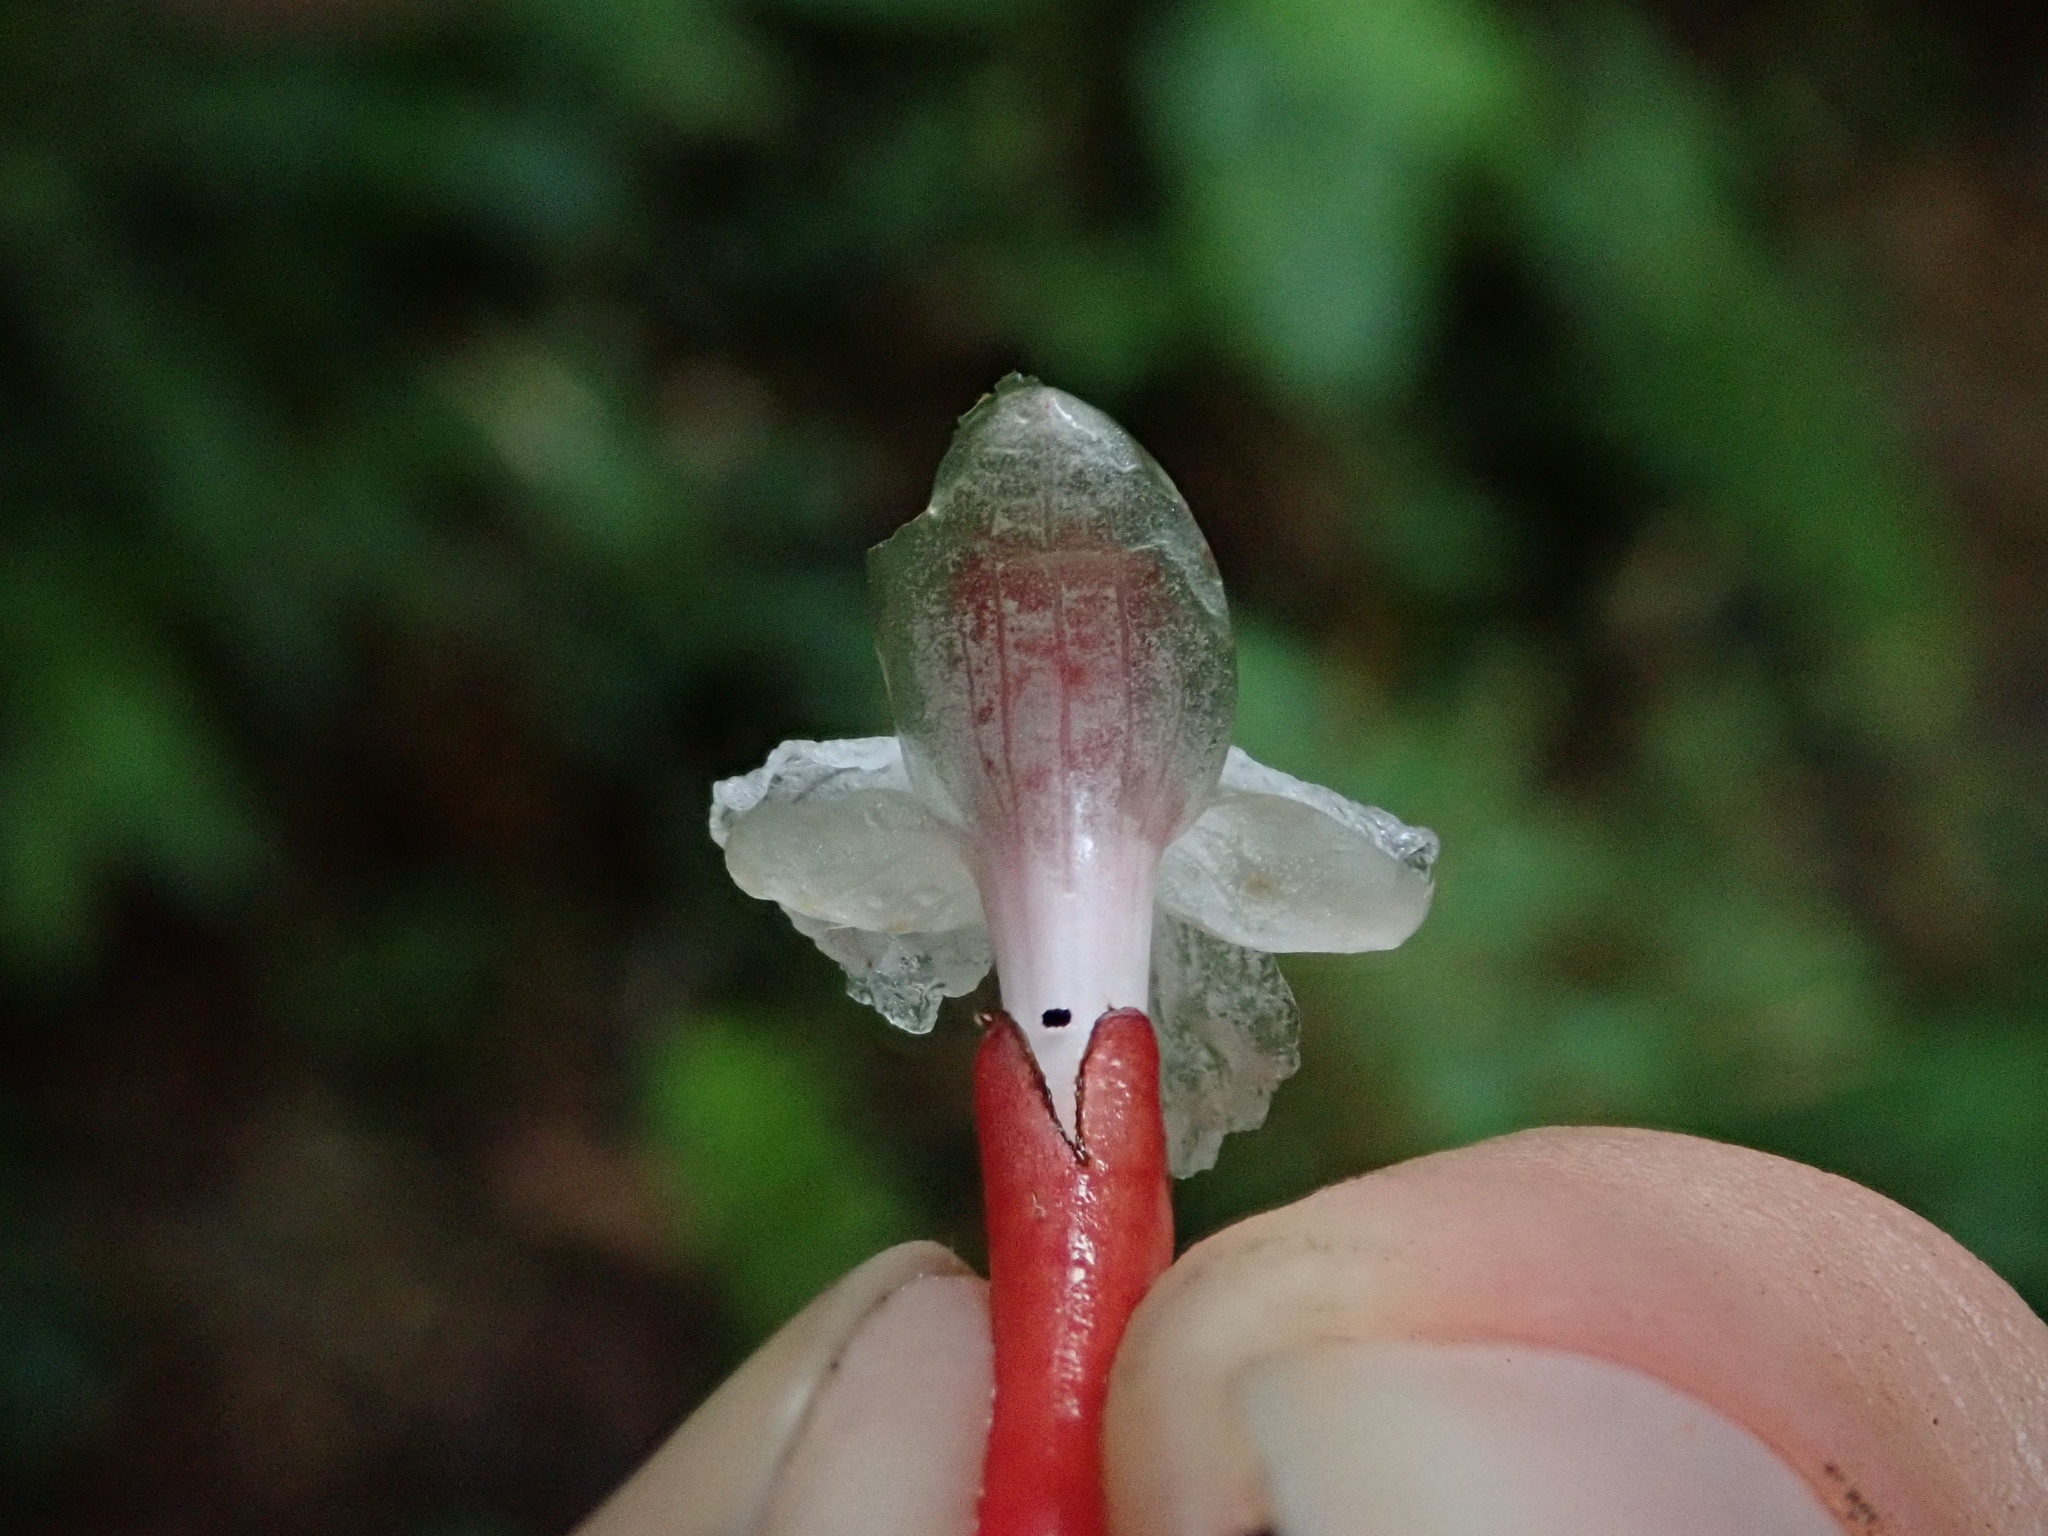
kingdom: Plantae
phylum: Tracheophyta
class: Liliopsida
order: Zingiberales
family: Zingiberaceae
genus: Renealmia
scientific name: Renealmia sessilifolia
